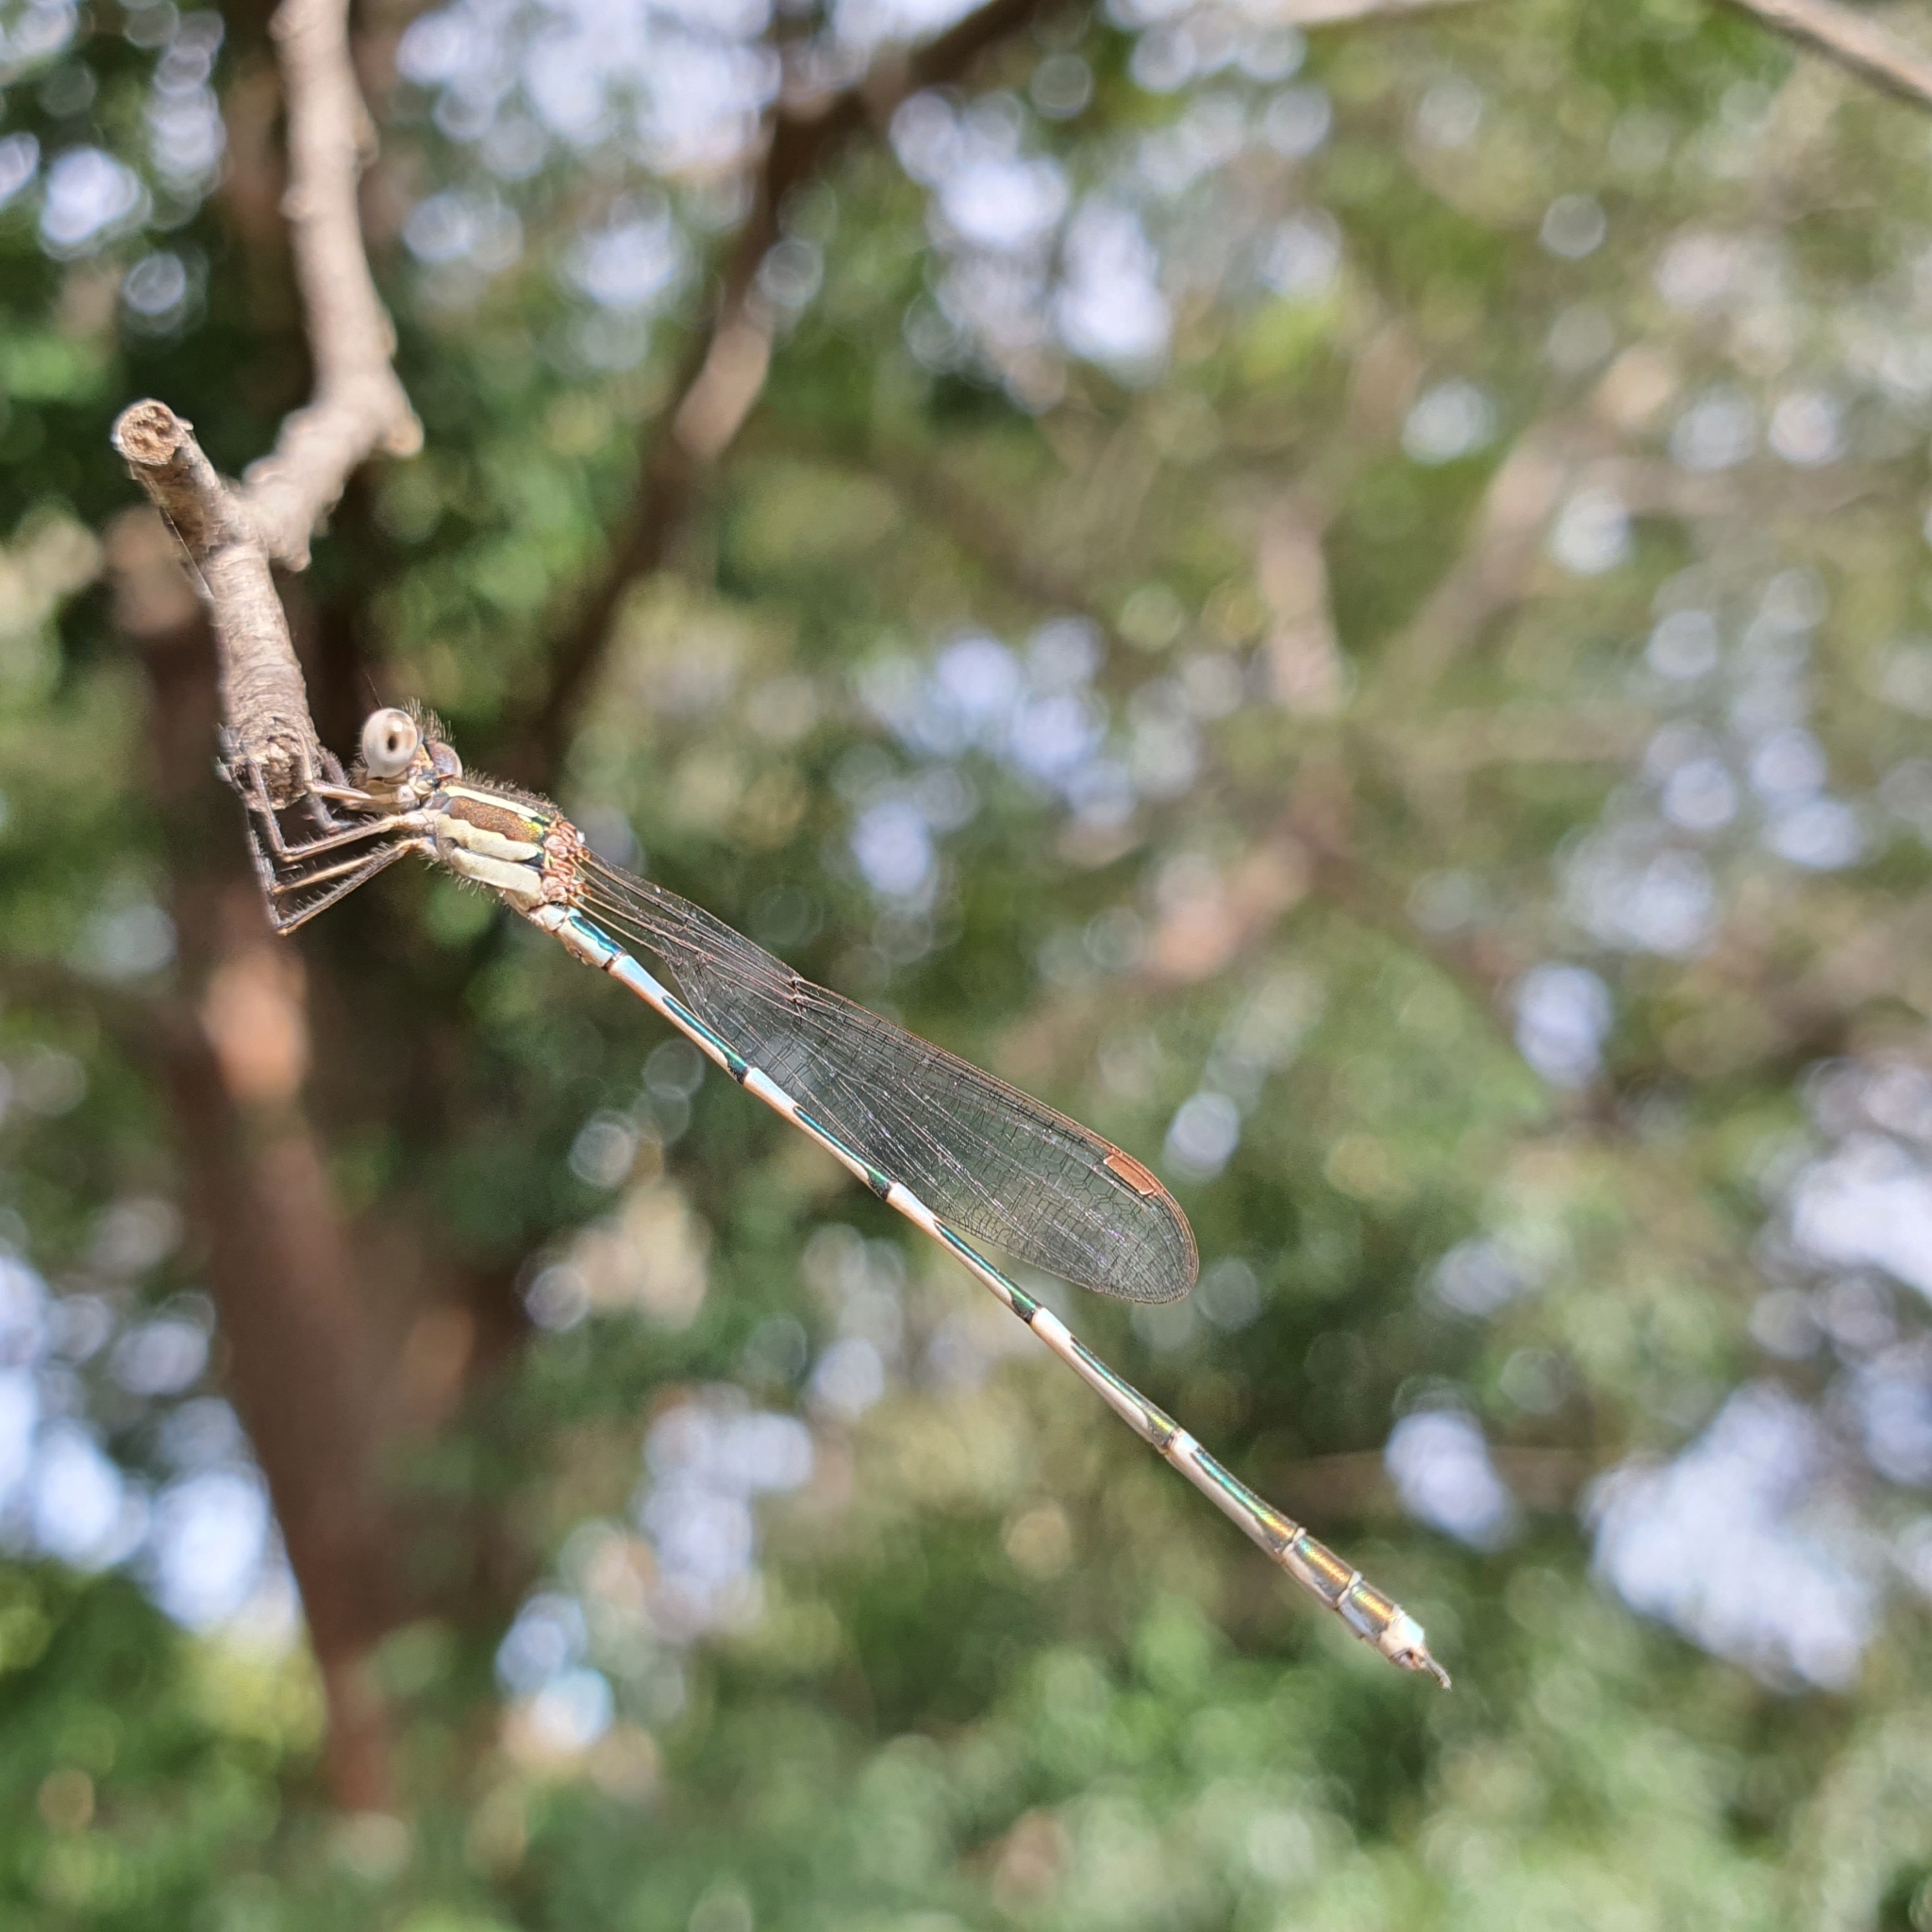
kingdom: Animalia
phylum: Arthropoda
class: Insecta
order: Odonata
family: Lestidae
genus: Austrolestes
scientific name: Austrolestes leda
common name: Wandering ringtail
